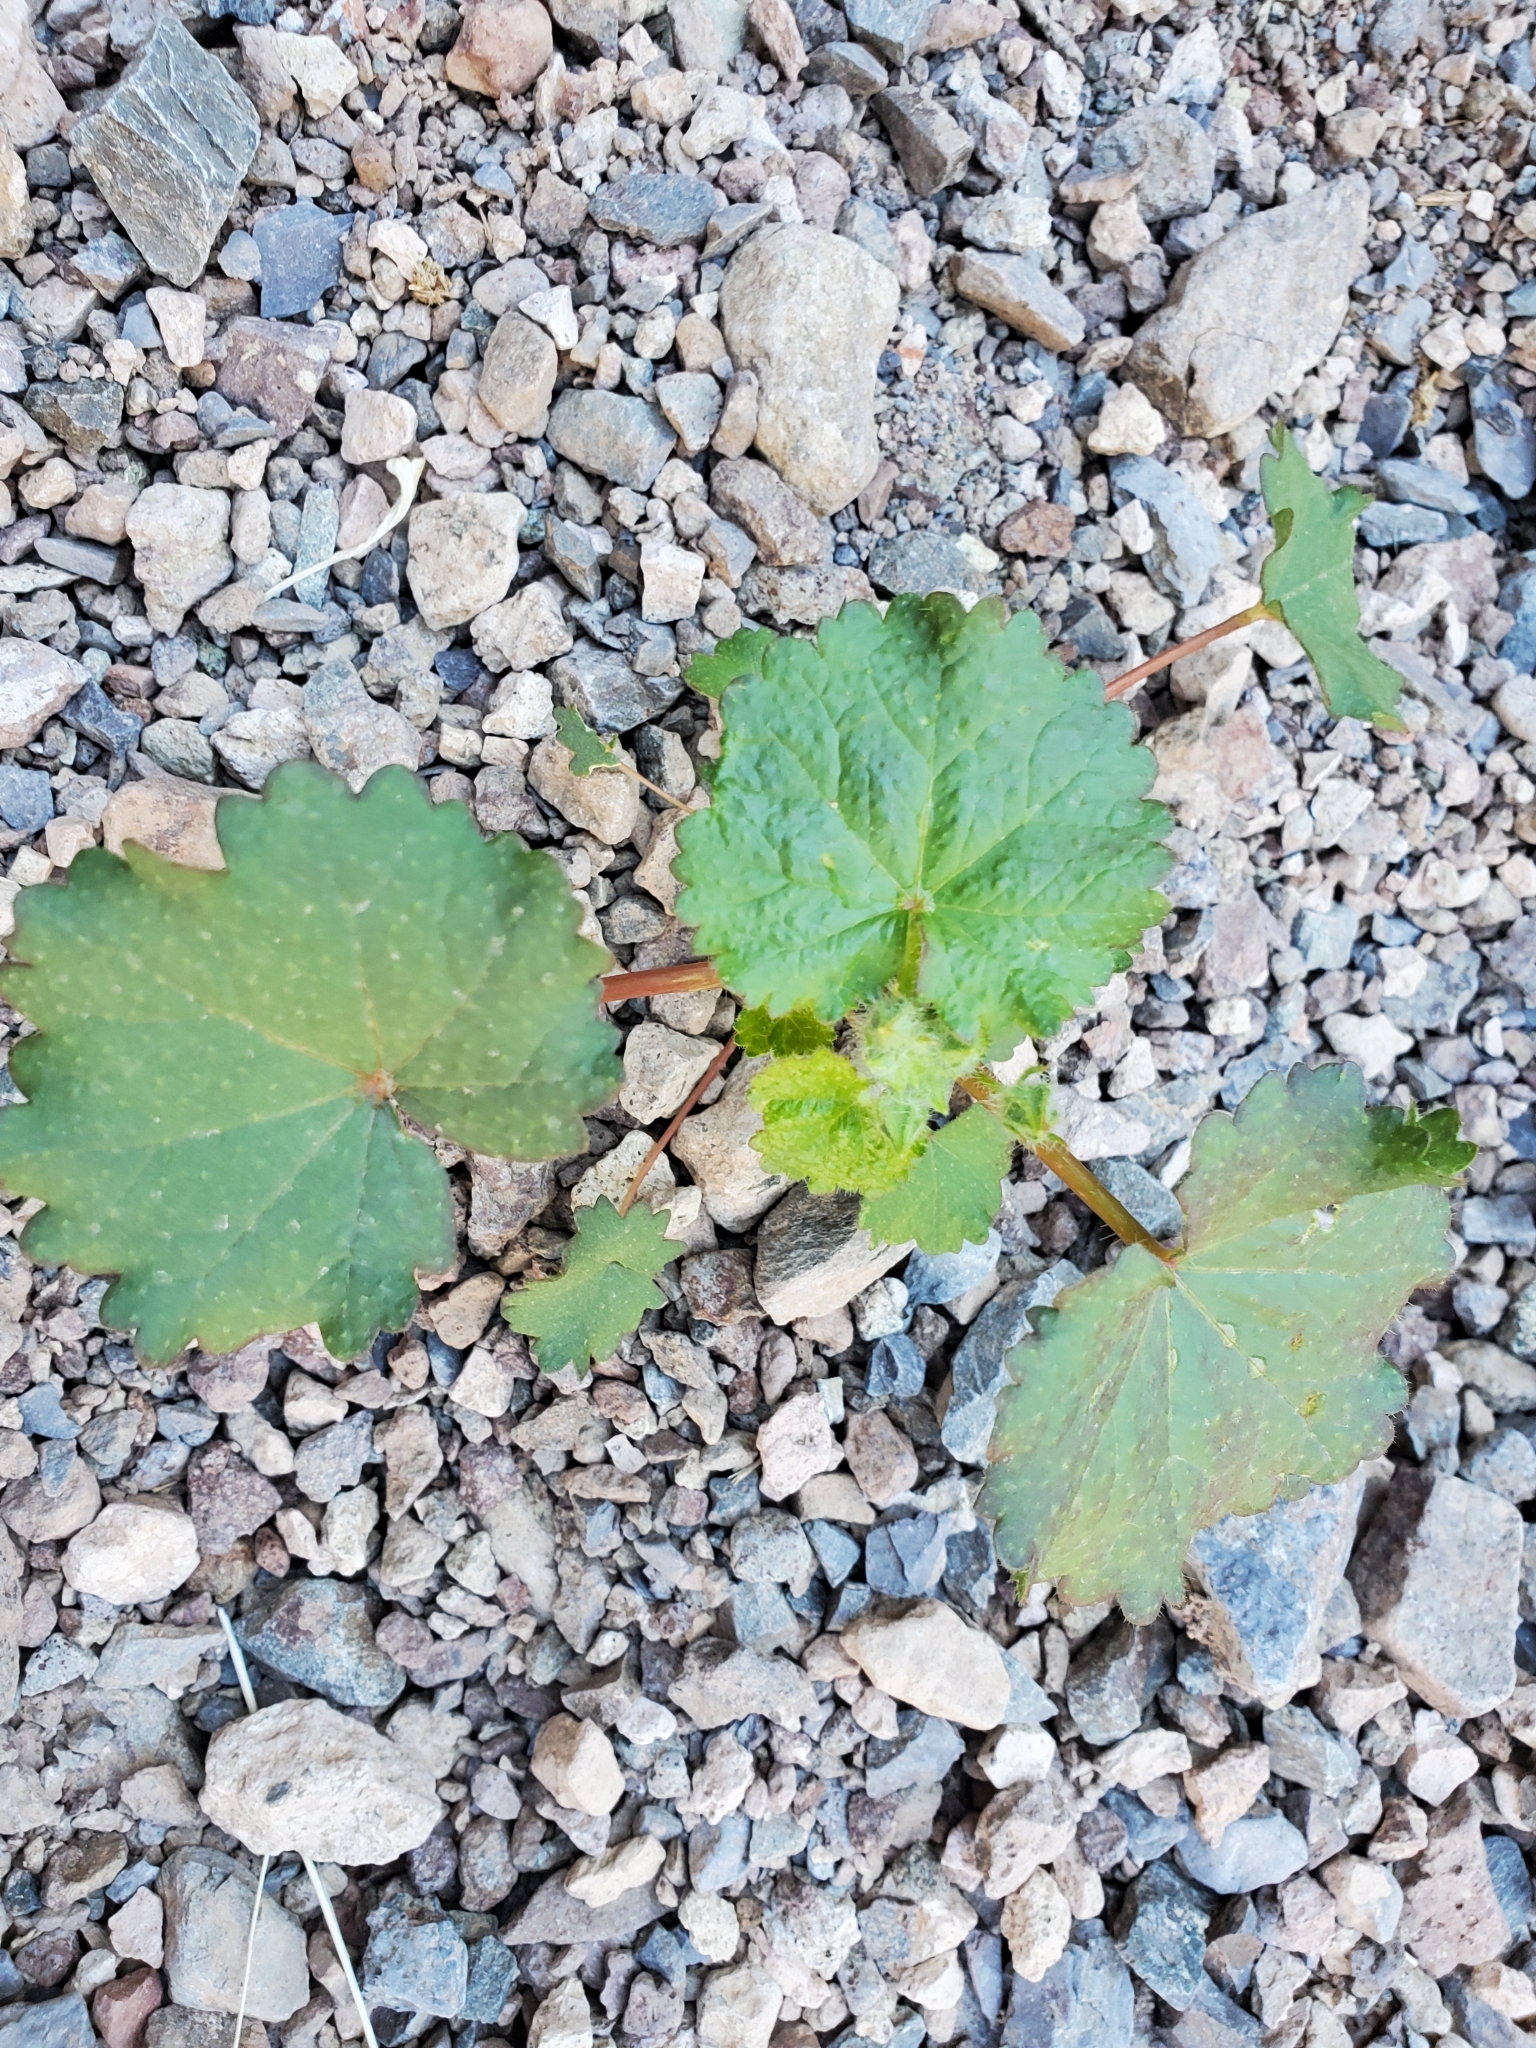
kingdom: Plantae
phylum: Tracheophyta
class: Magnoliopsida
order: Malvales
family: Malvaceae
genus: Eremalche
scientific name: Eremalche rotundifolia
